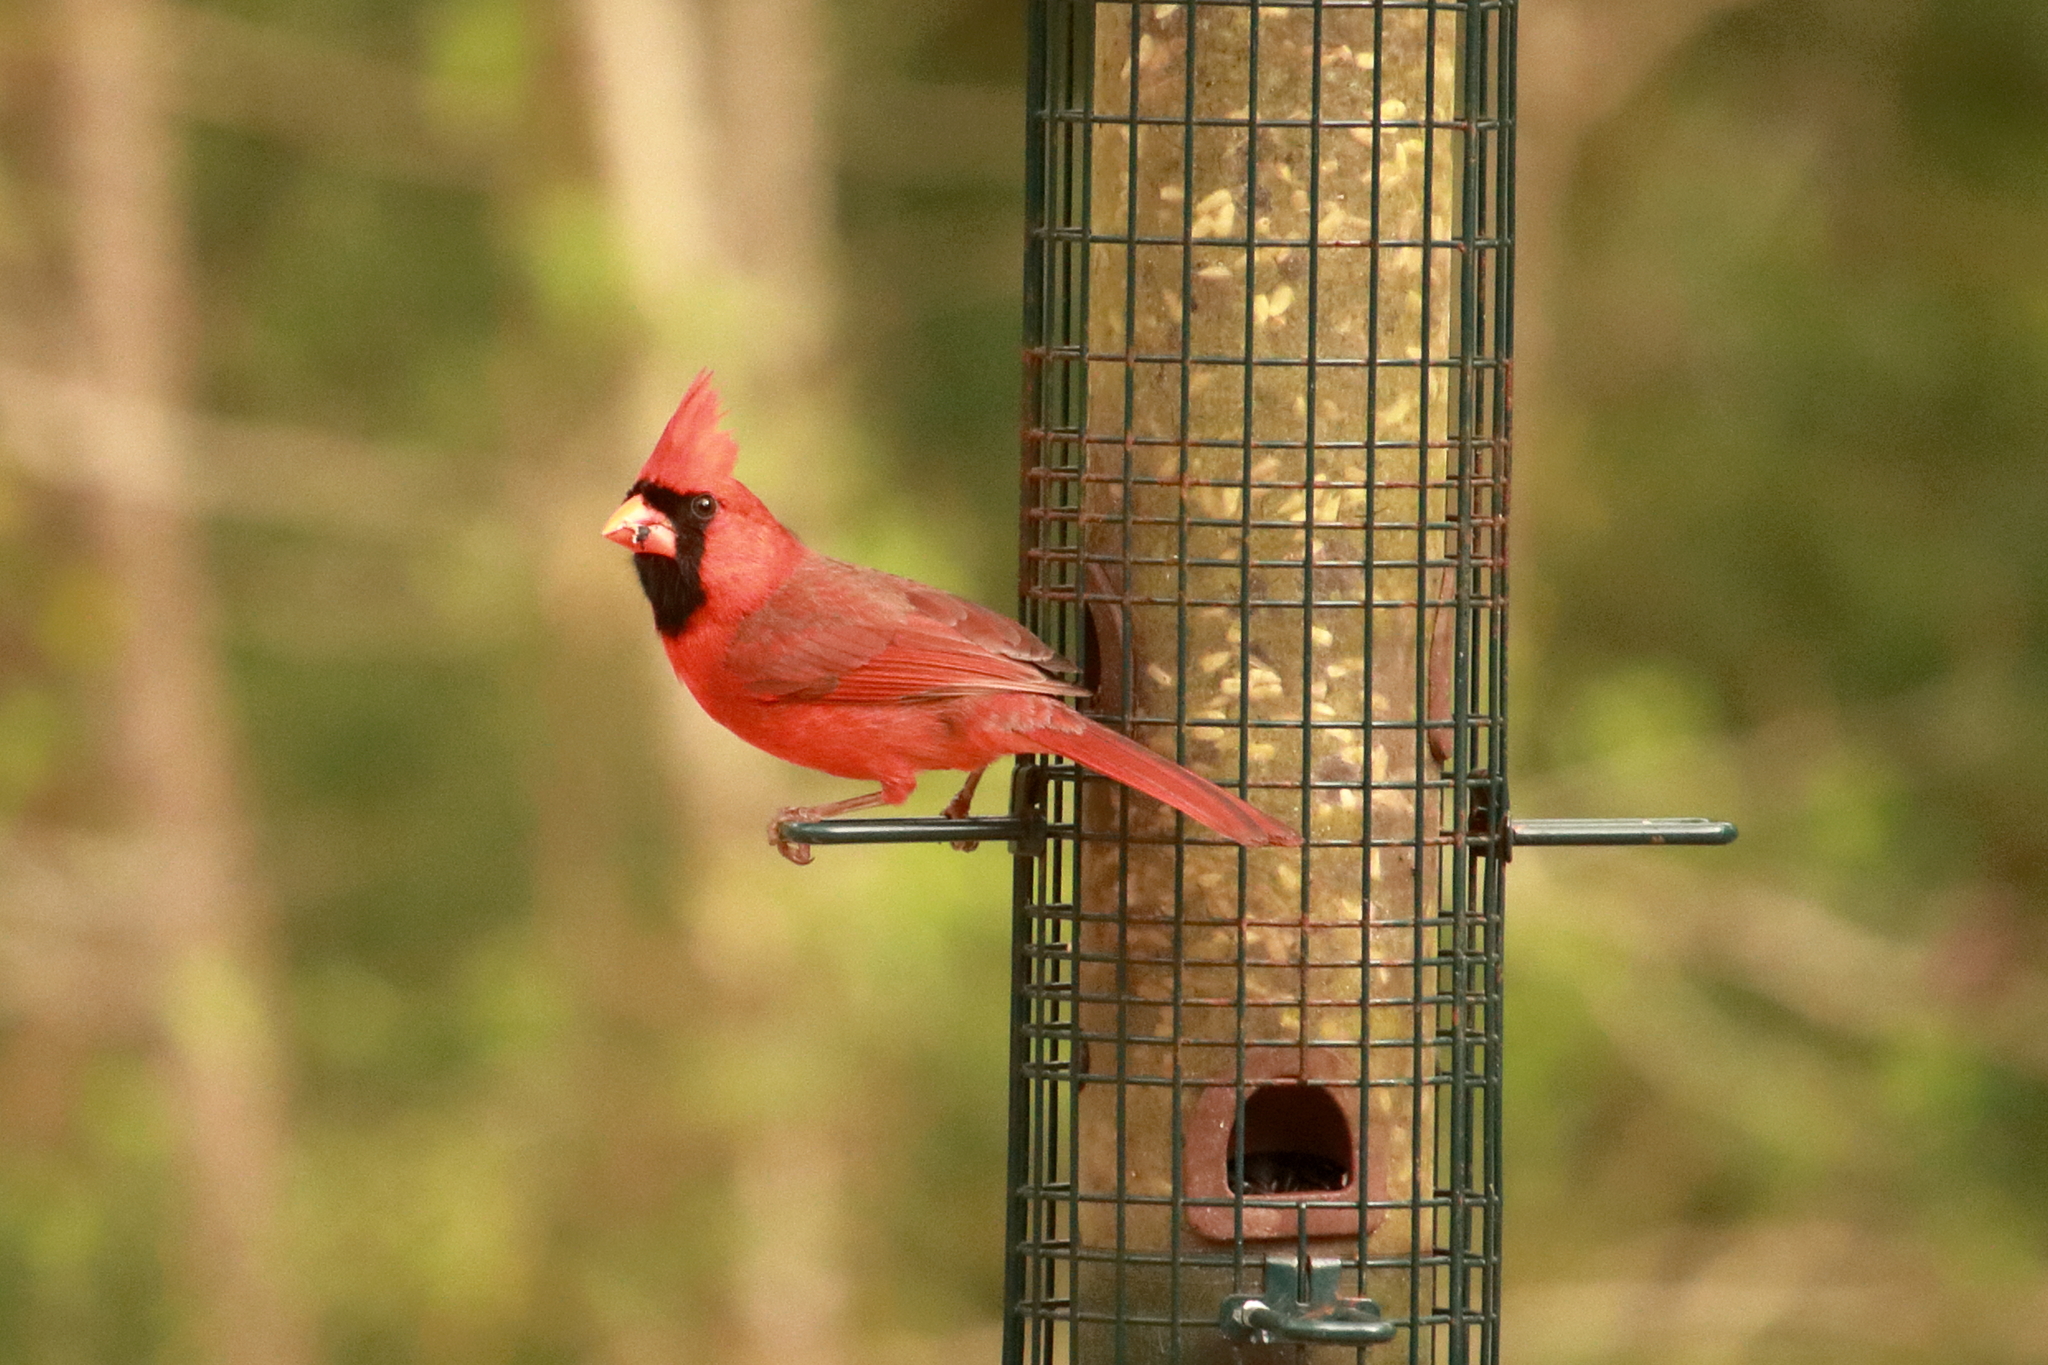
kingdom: Animalia
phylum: Chordata
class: Aves
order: Passeriformes
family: Cardinalidae
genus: Cardinalis
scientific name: Cardinalis cardinalis
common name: Northern cardinal
